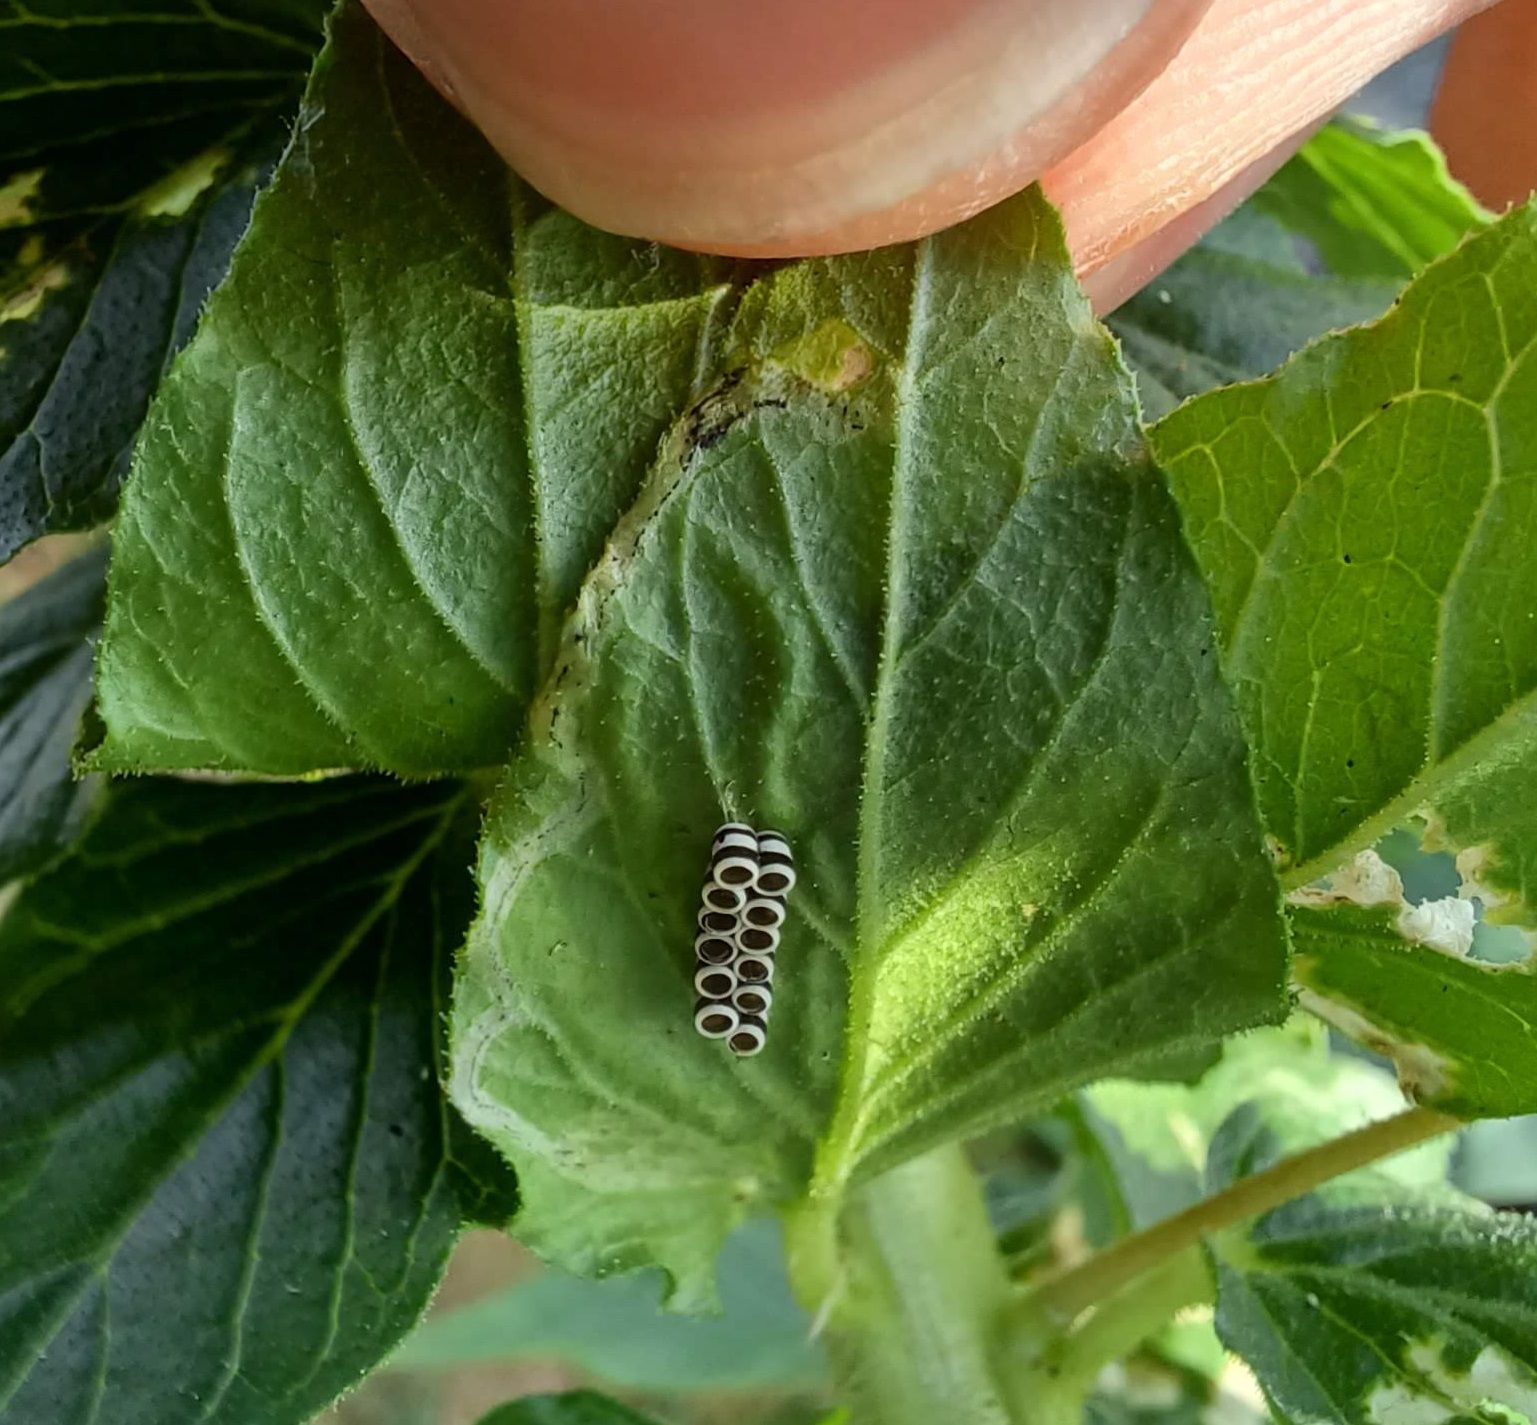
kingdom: Animalia
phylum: Arthropoda
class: Insecta
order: Hemiptera
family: Pentatomidae
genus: Murgantia
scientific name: Murgantia histrionica
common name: Harlequin bug
